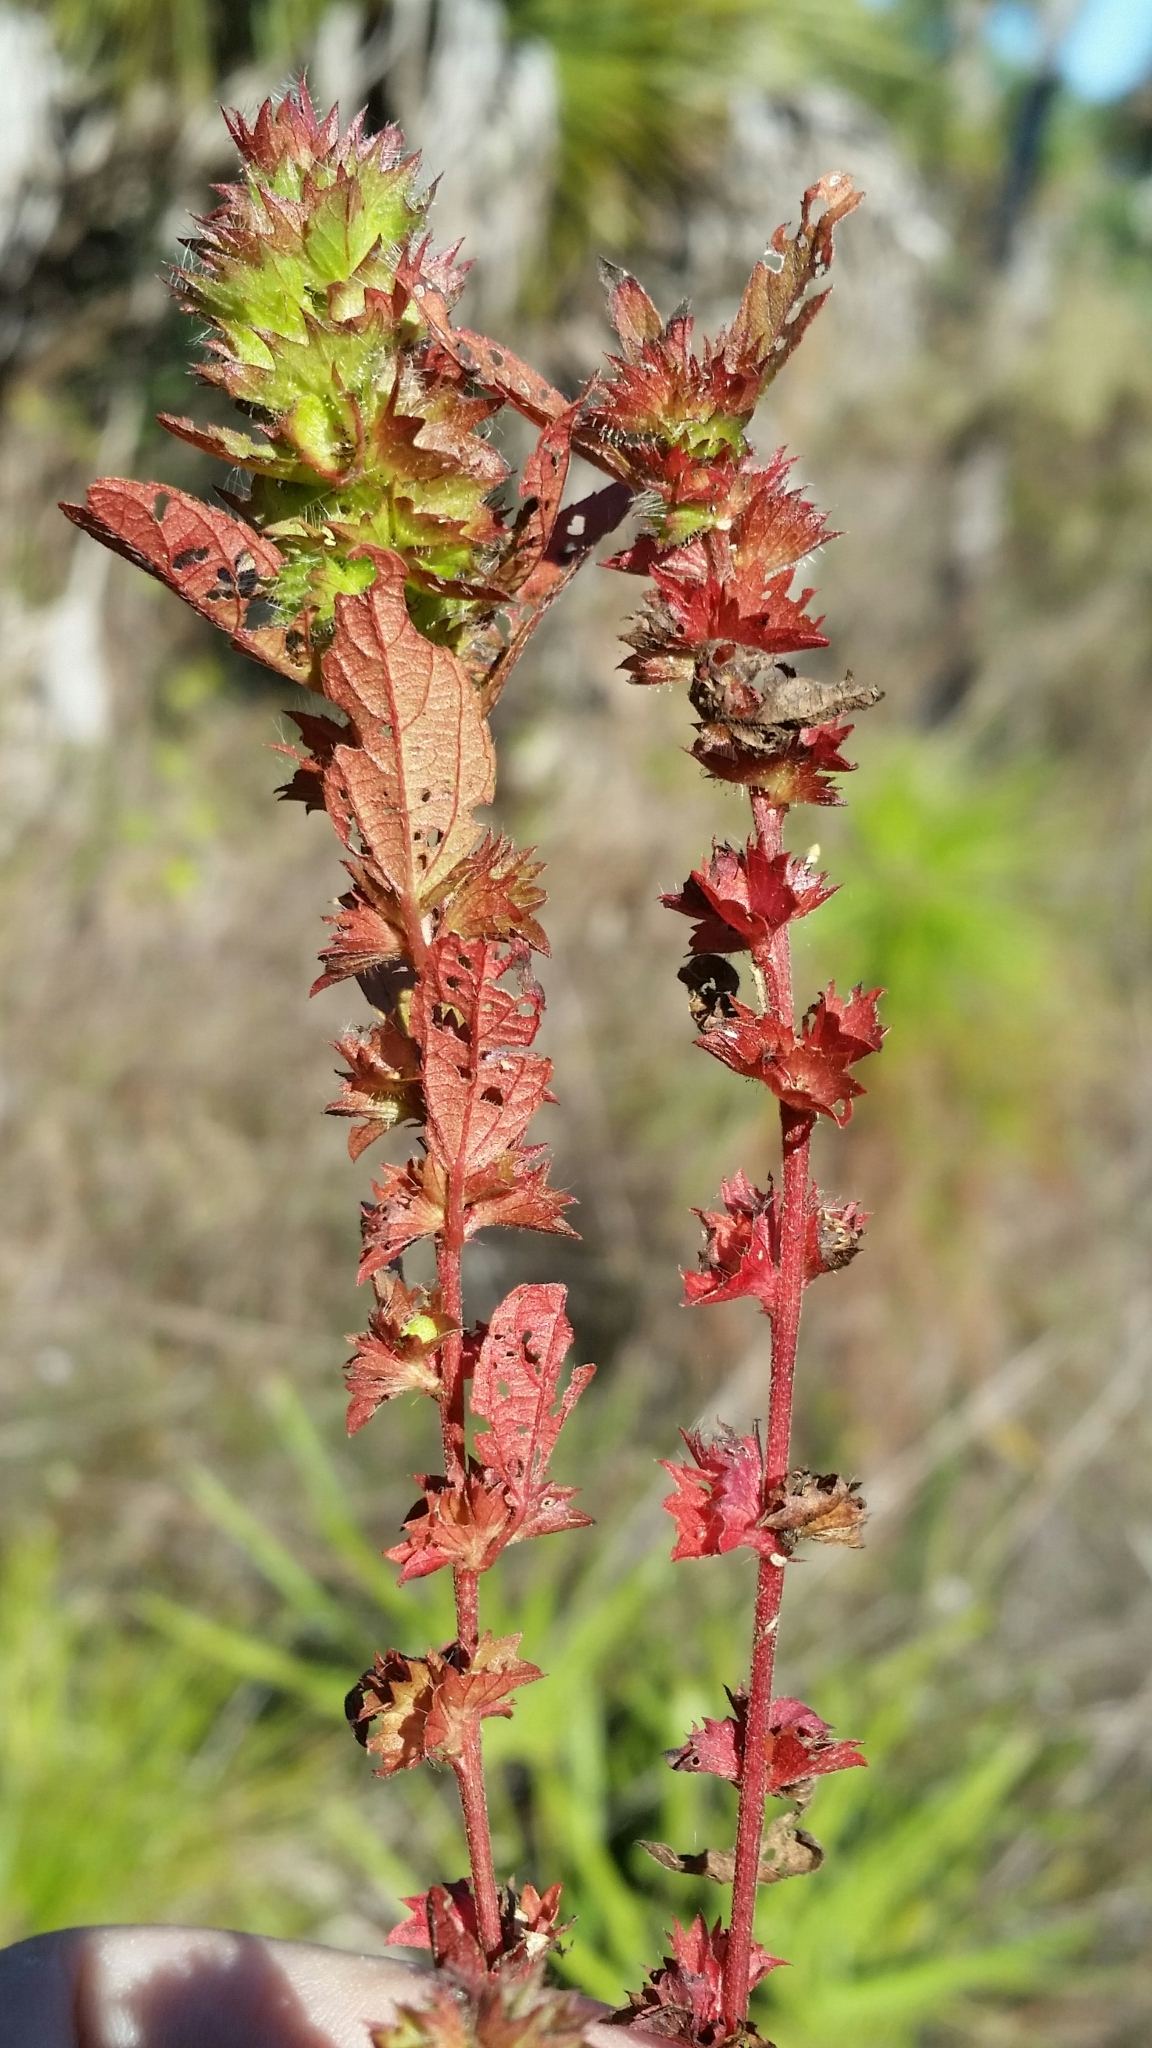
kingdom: Plantae
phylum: Tracheophyta
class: Magnoliopsida
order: Malpighiales
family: Euphorbiaceae
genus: Acalypha
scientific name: Acalypha gracilens
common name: Slender three-seeded mercury
